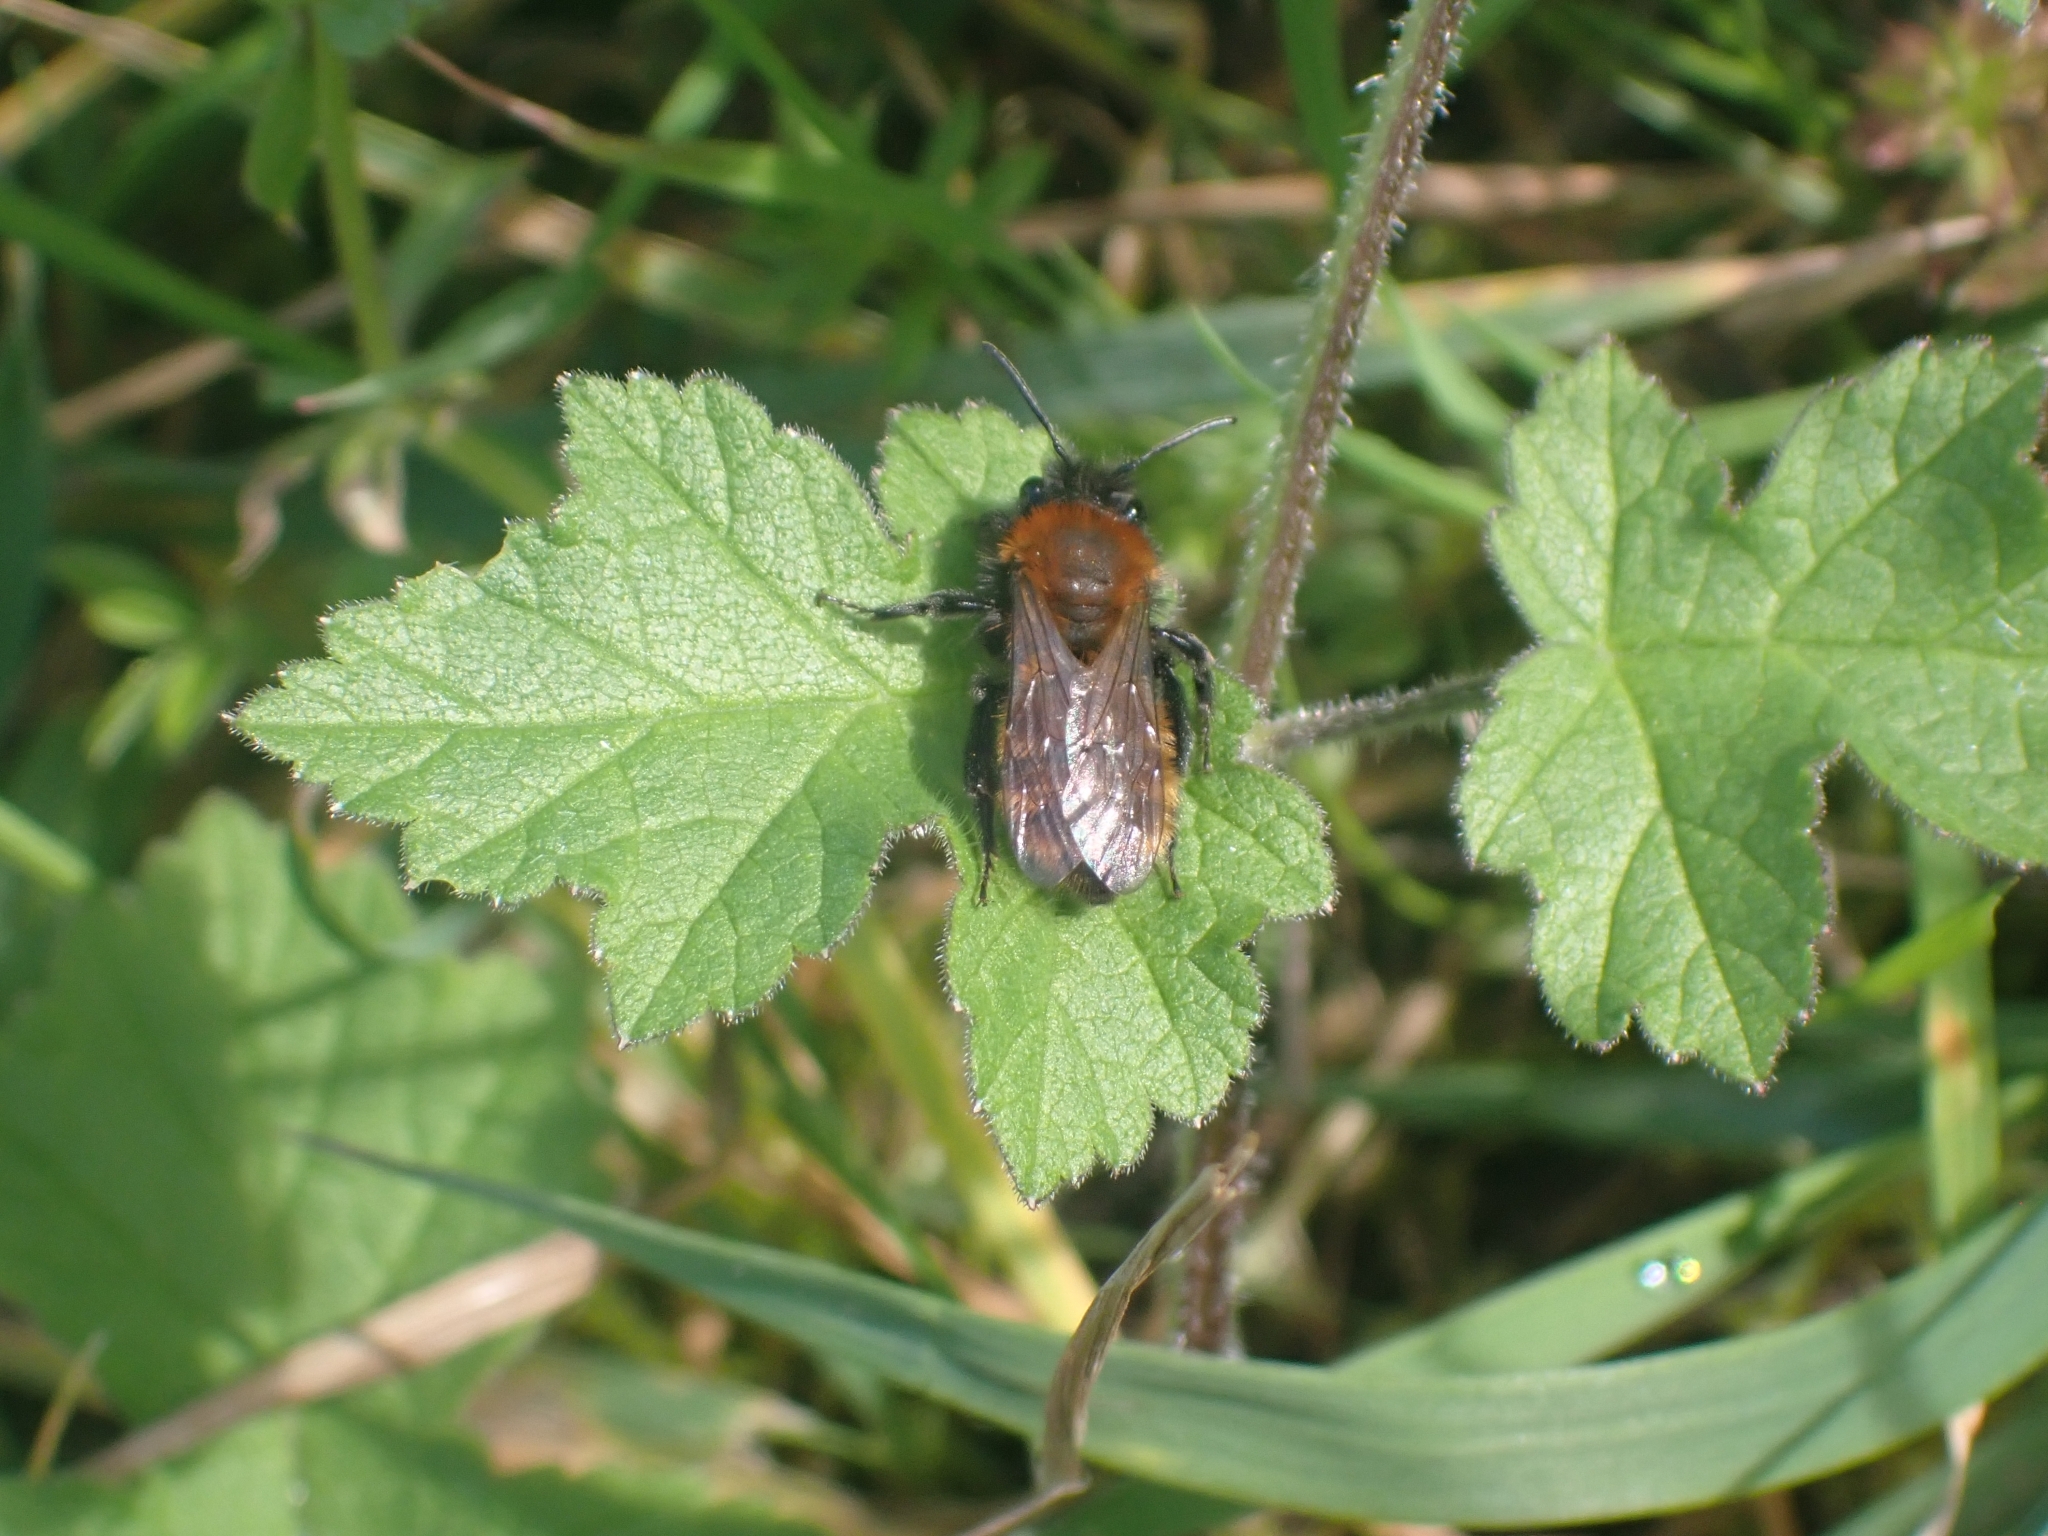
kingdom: Animalia
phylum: Arthropoda
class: Insecta
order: Hymenoptera
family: Andrenidae
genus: Andrena
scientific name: Andrena fulva
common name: Tawny mining bee
